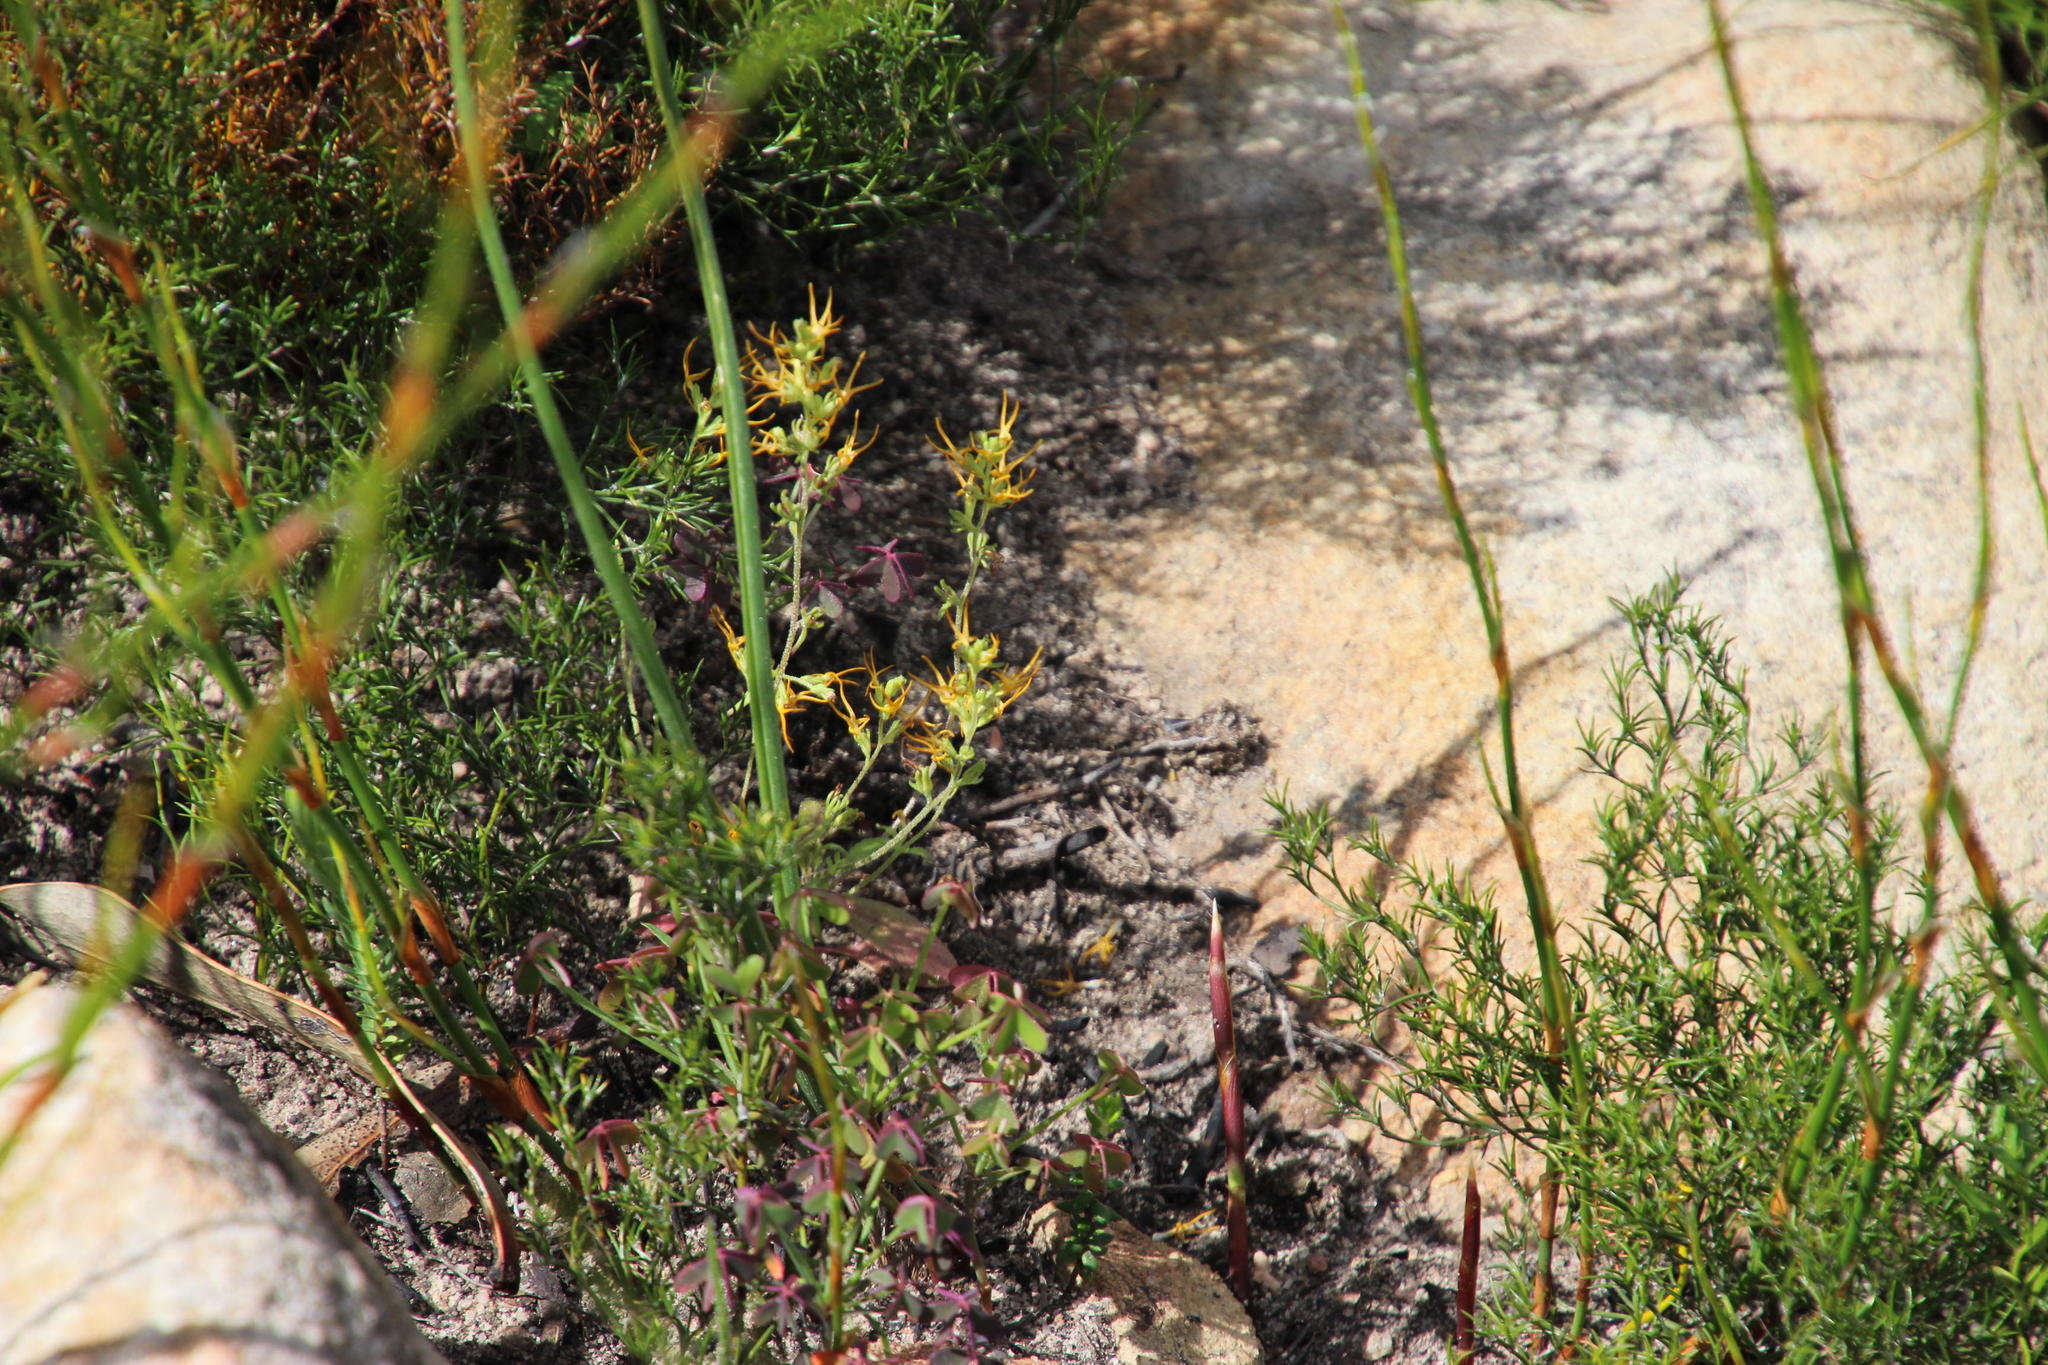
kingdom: Plantae
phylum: Tracheophyta
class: Magnoliopsida
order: Lamiales
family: Scrophulariaceae
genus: Manulea
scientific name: Manulea cheiranthus
